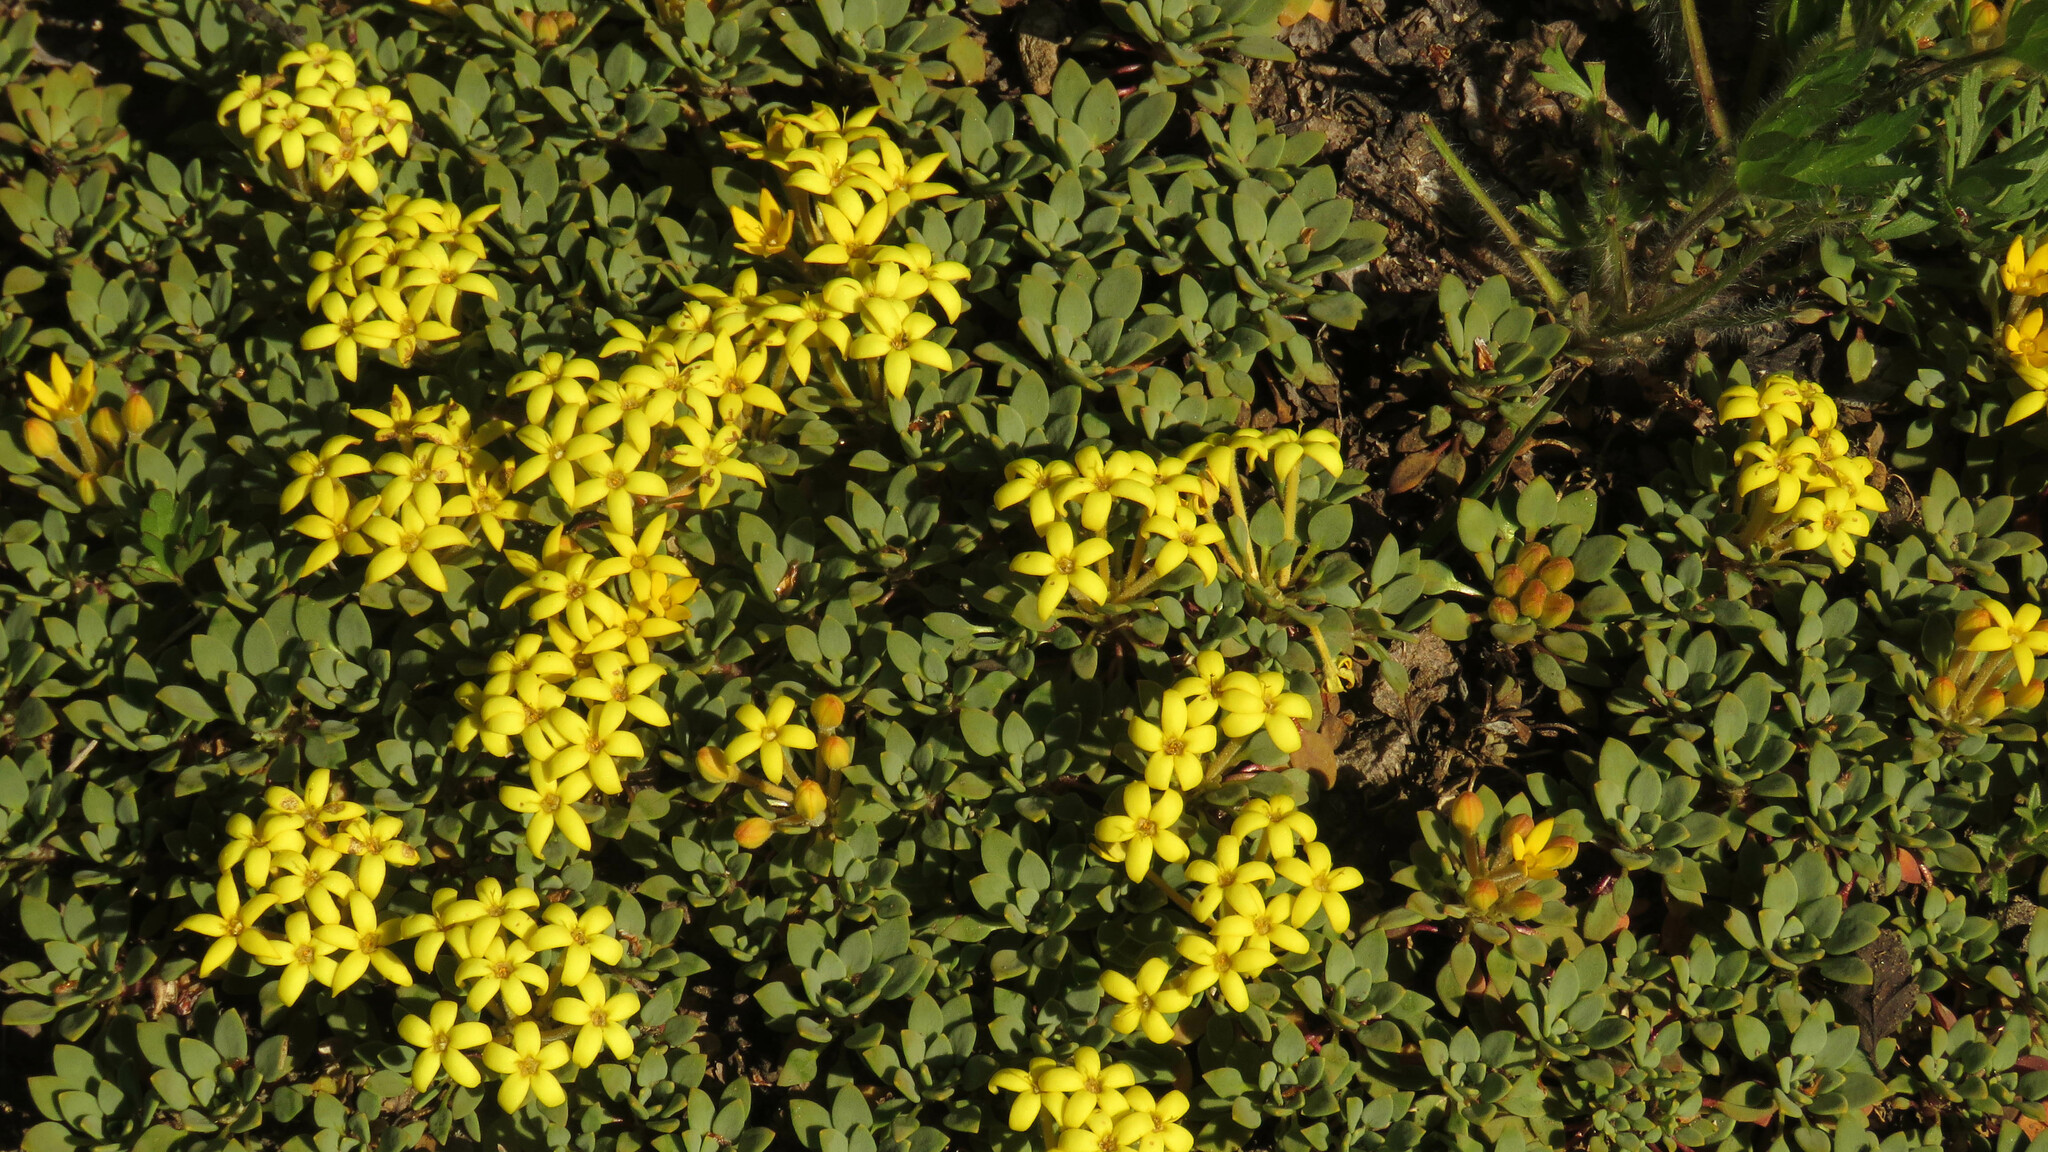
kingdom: Plantae
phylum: Tracheophyta
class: Magnoliopsida
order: Gentianales
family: Rubiaceae
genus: Oreopolus
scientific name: Oreopolus glacialis
